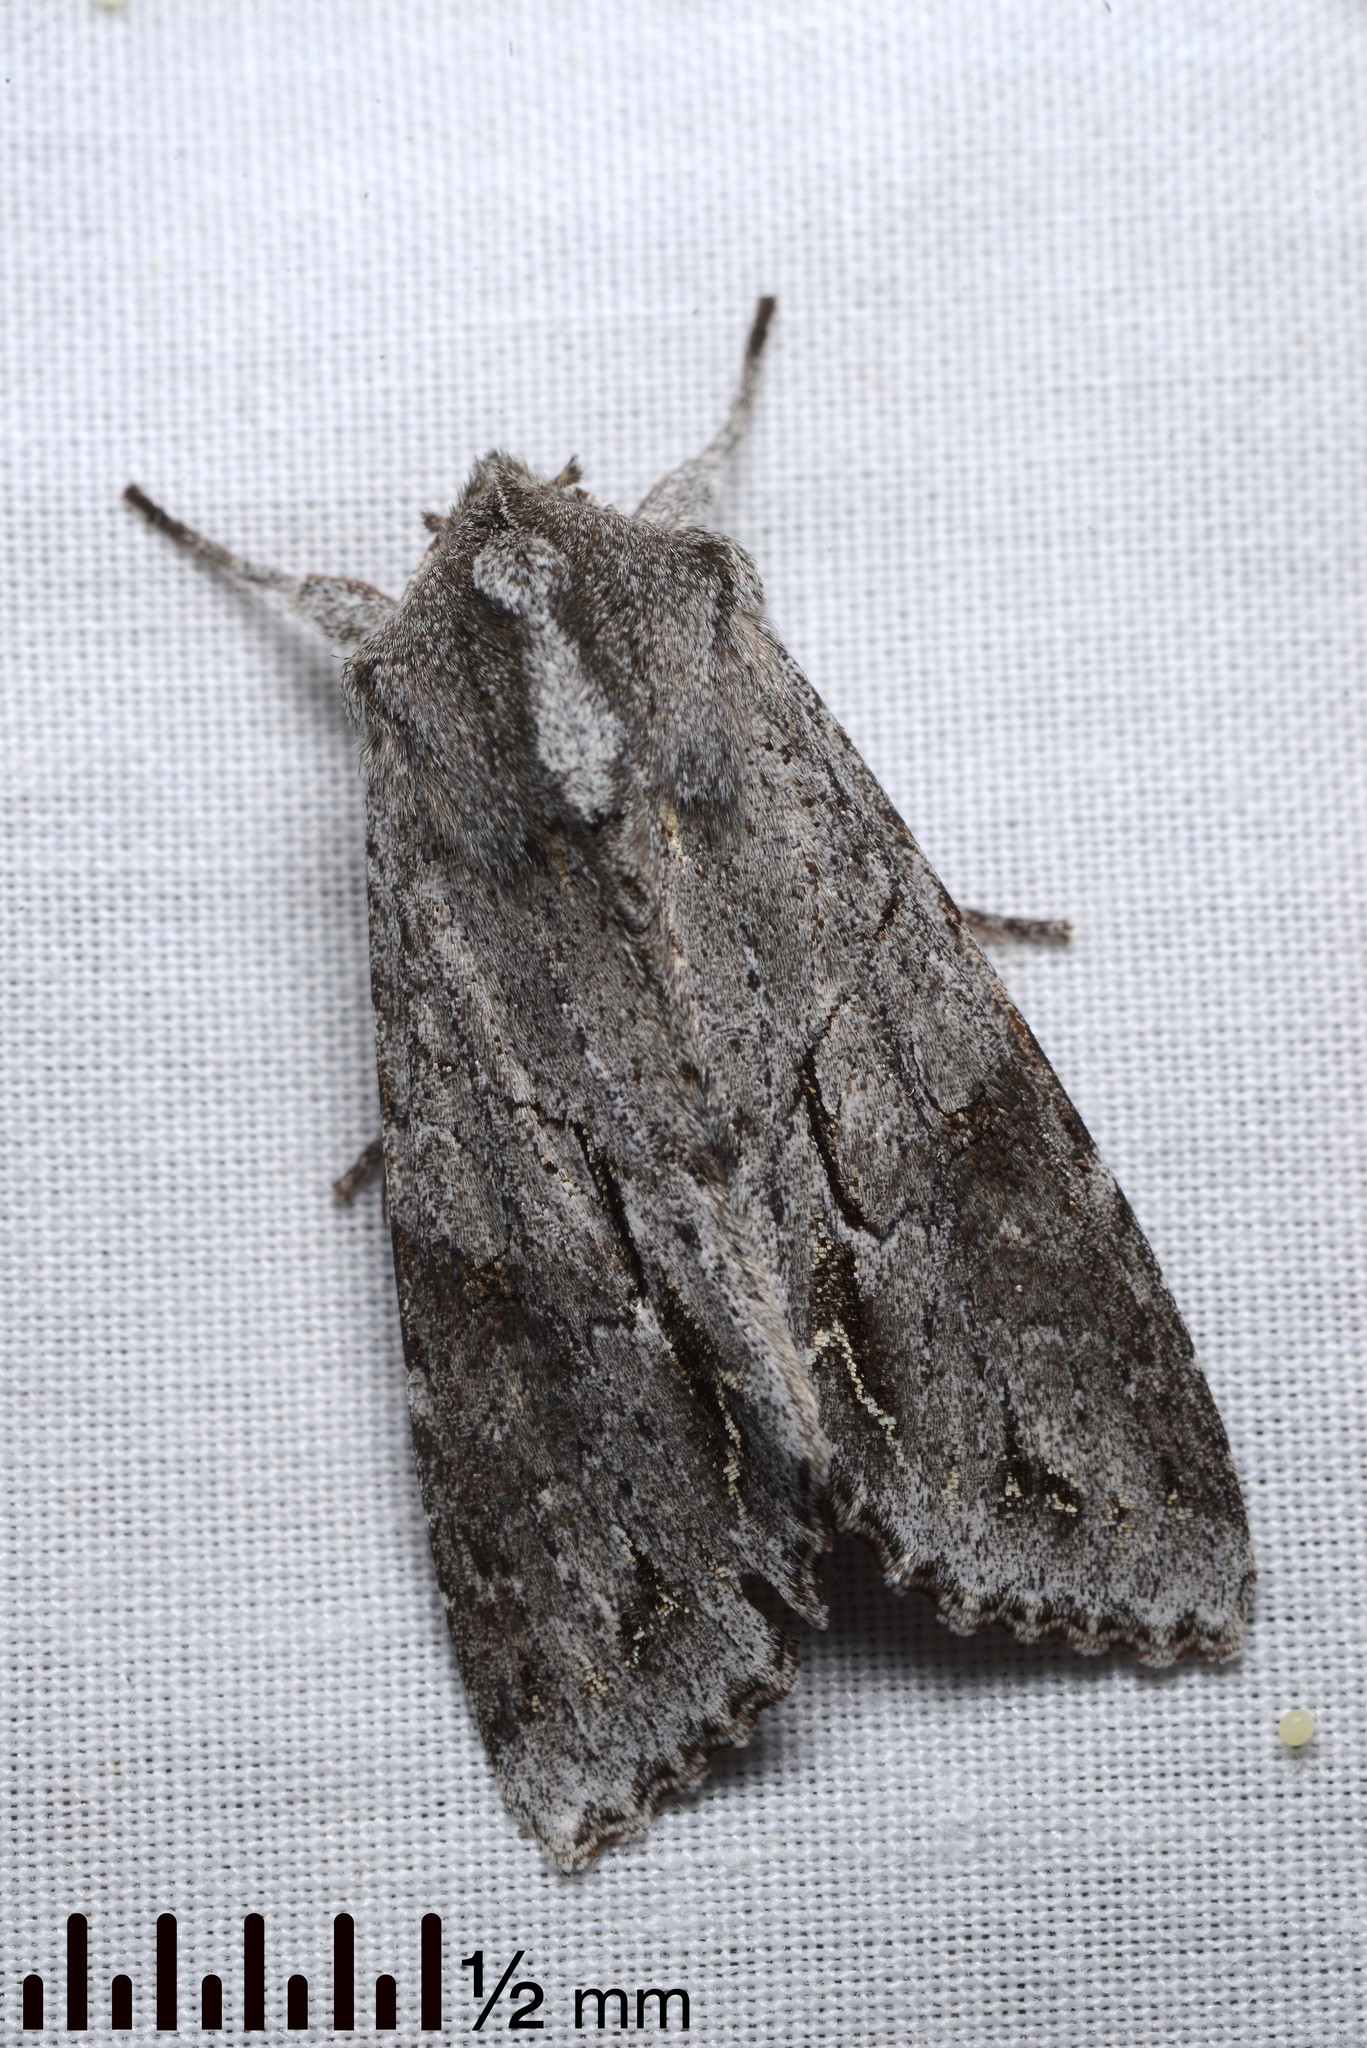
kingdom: Animalia
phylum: Arthropoda
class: Insecta
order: Lepidoptera
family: Noctuidae
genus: Ichneutica
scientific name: Ichneutica
